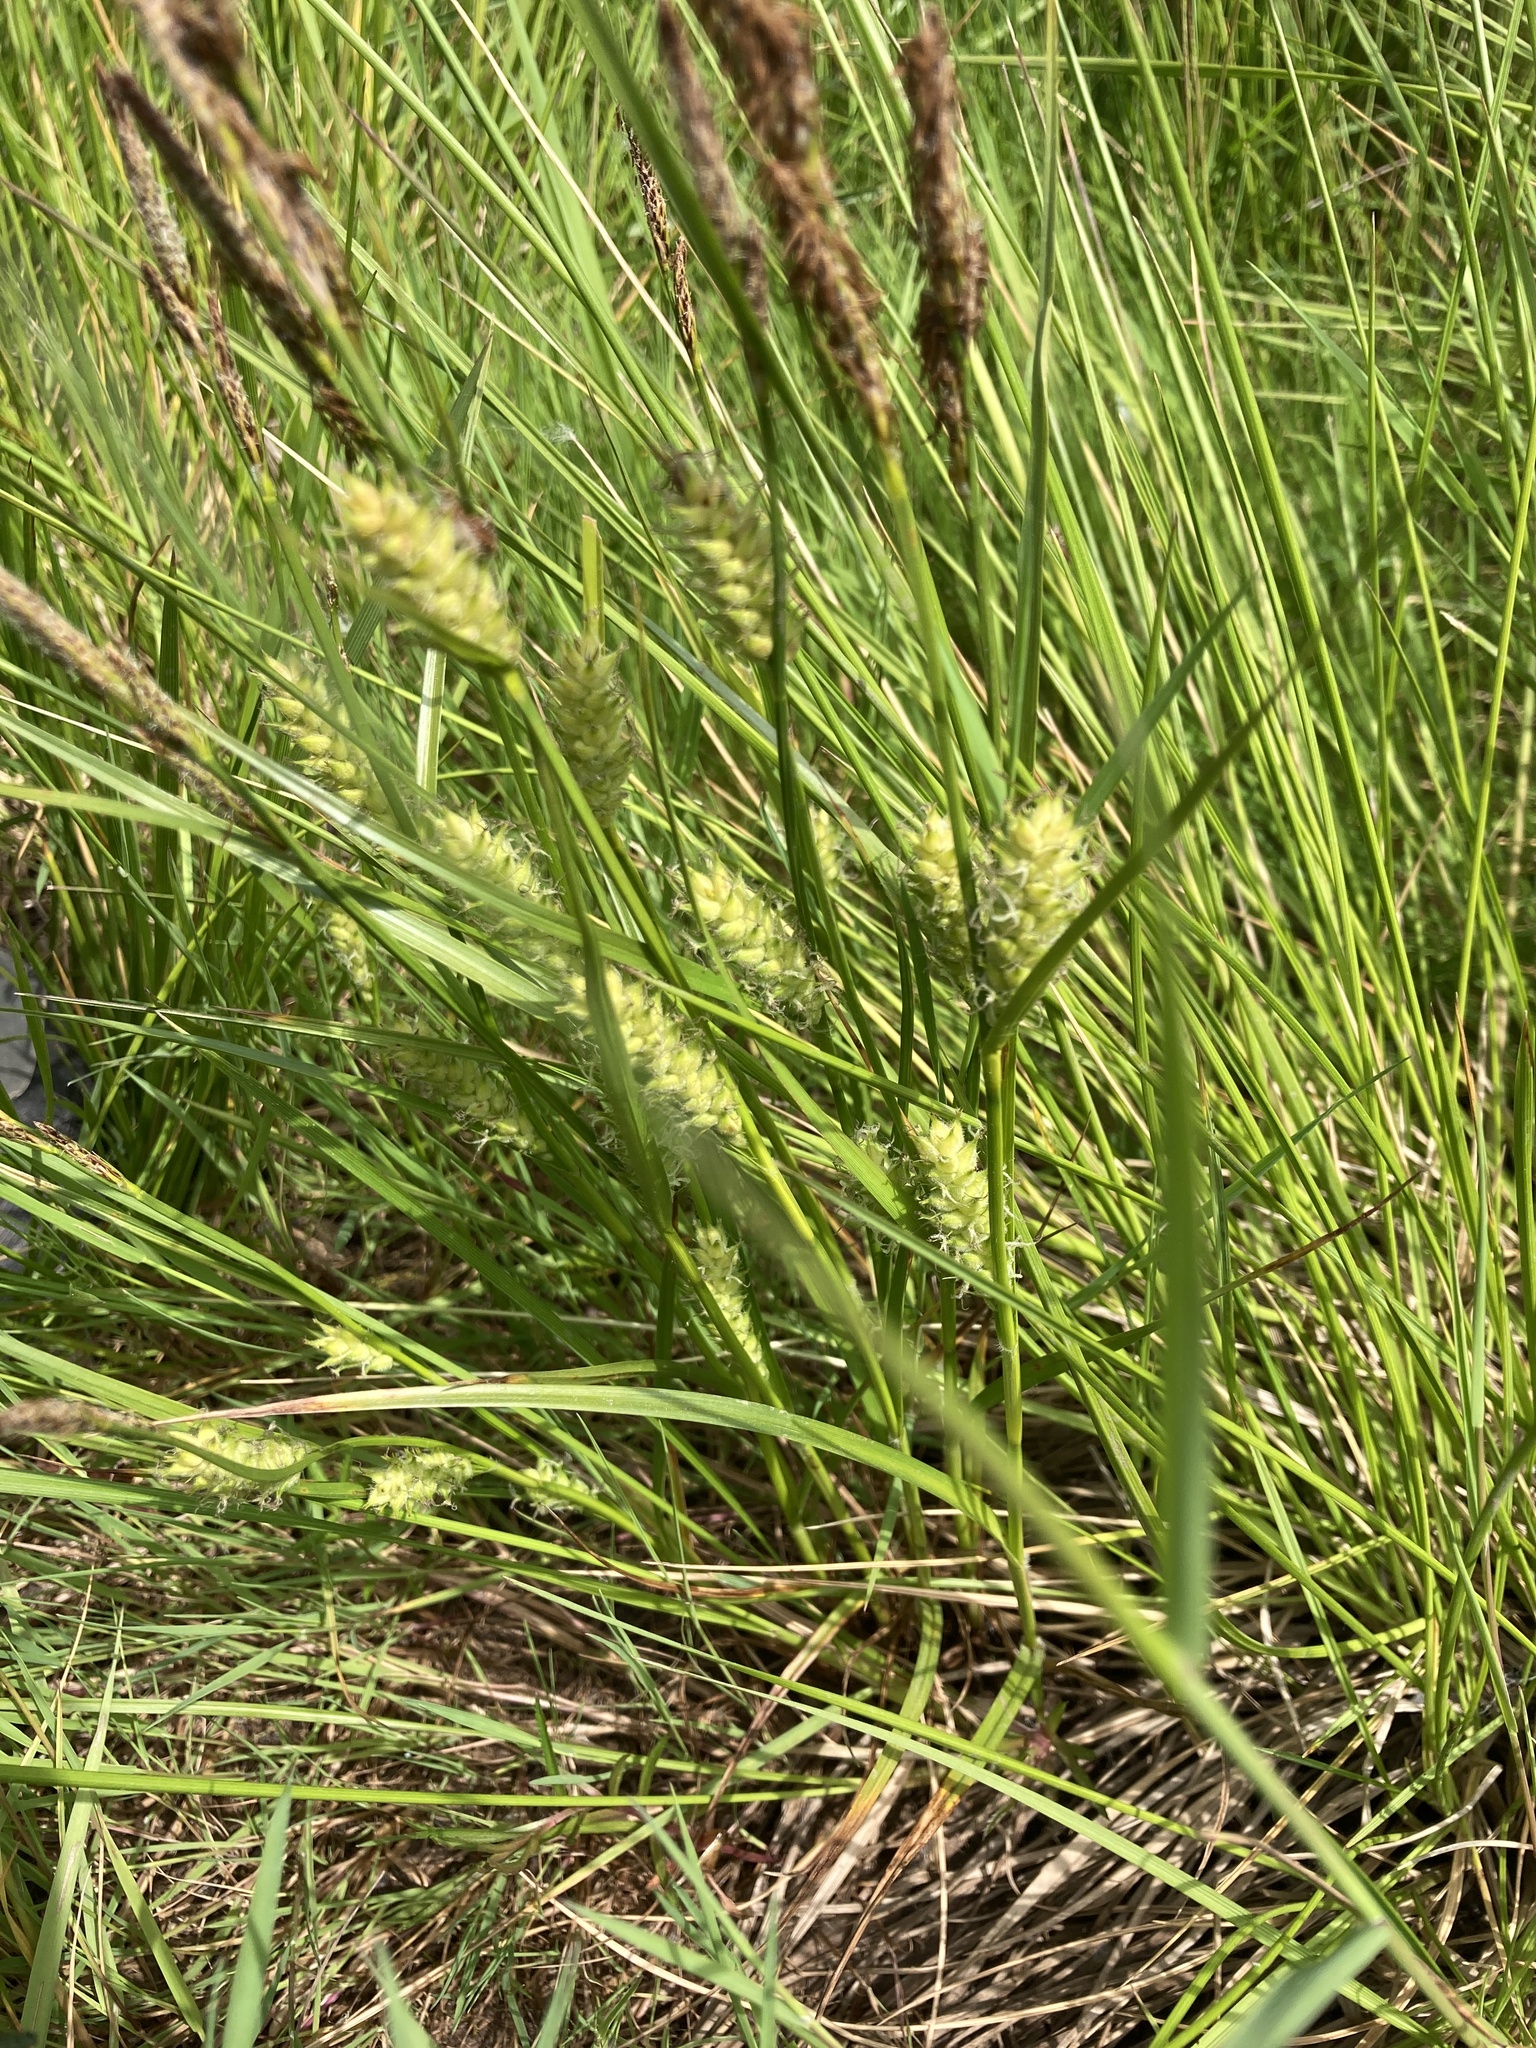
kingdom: Plantae
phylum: Tracheophyta
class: Liliopsida
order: Poales
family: Cyperaceae
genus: Carex
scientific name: Carex hirta
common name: Hairy sedge
